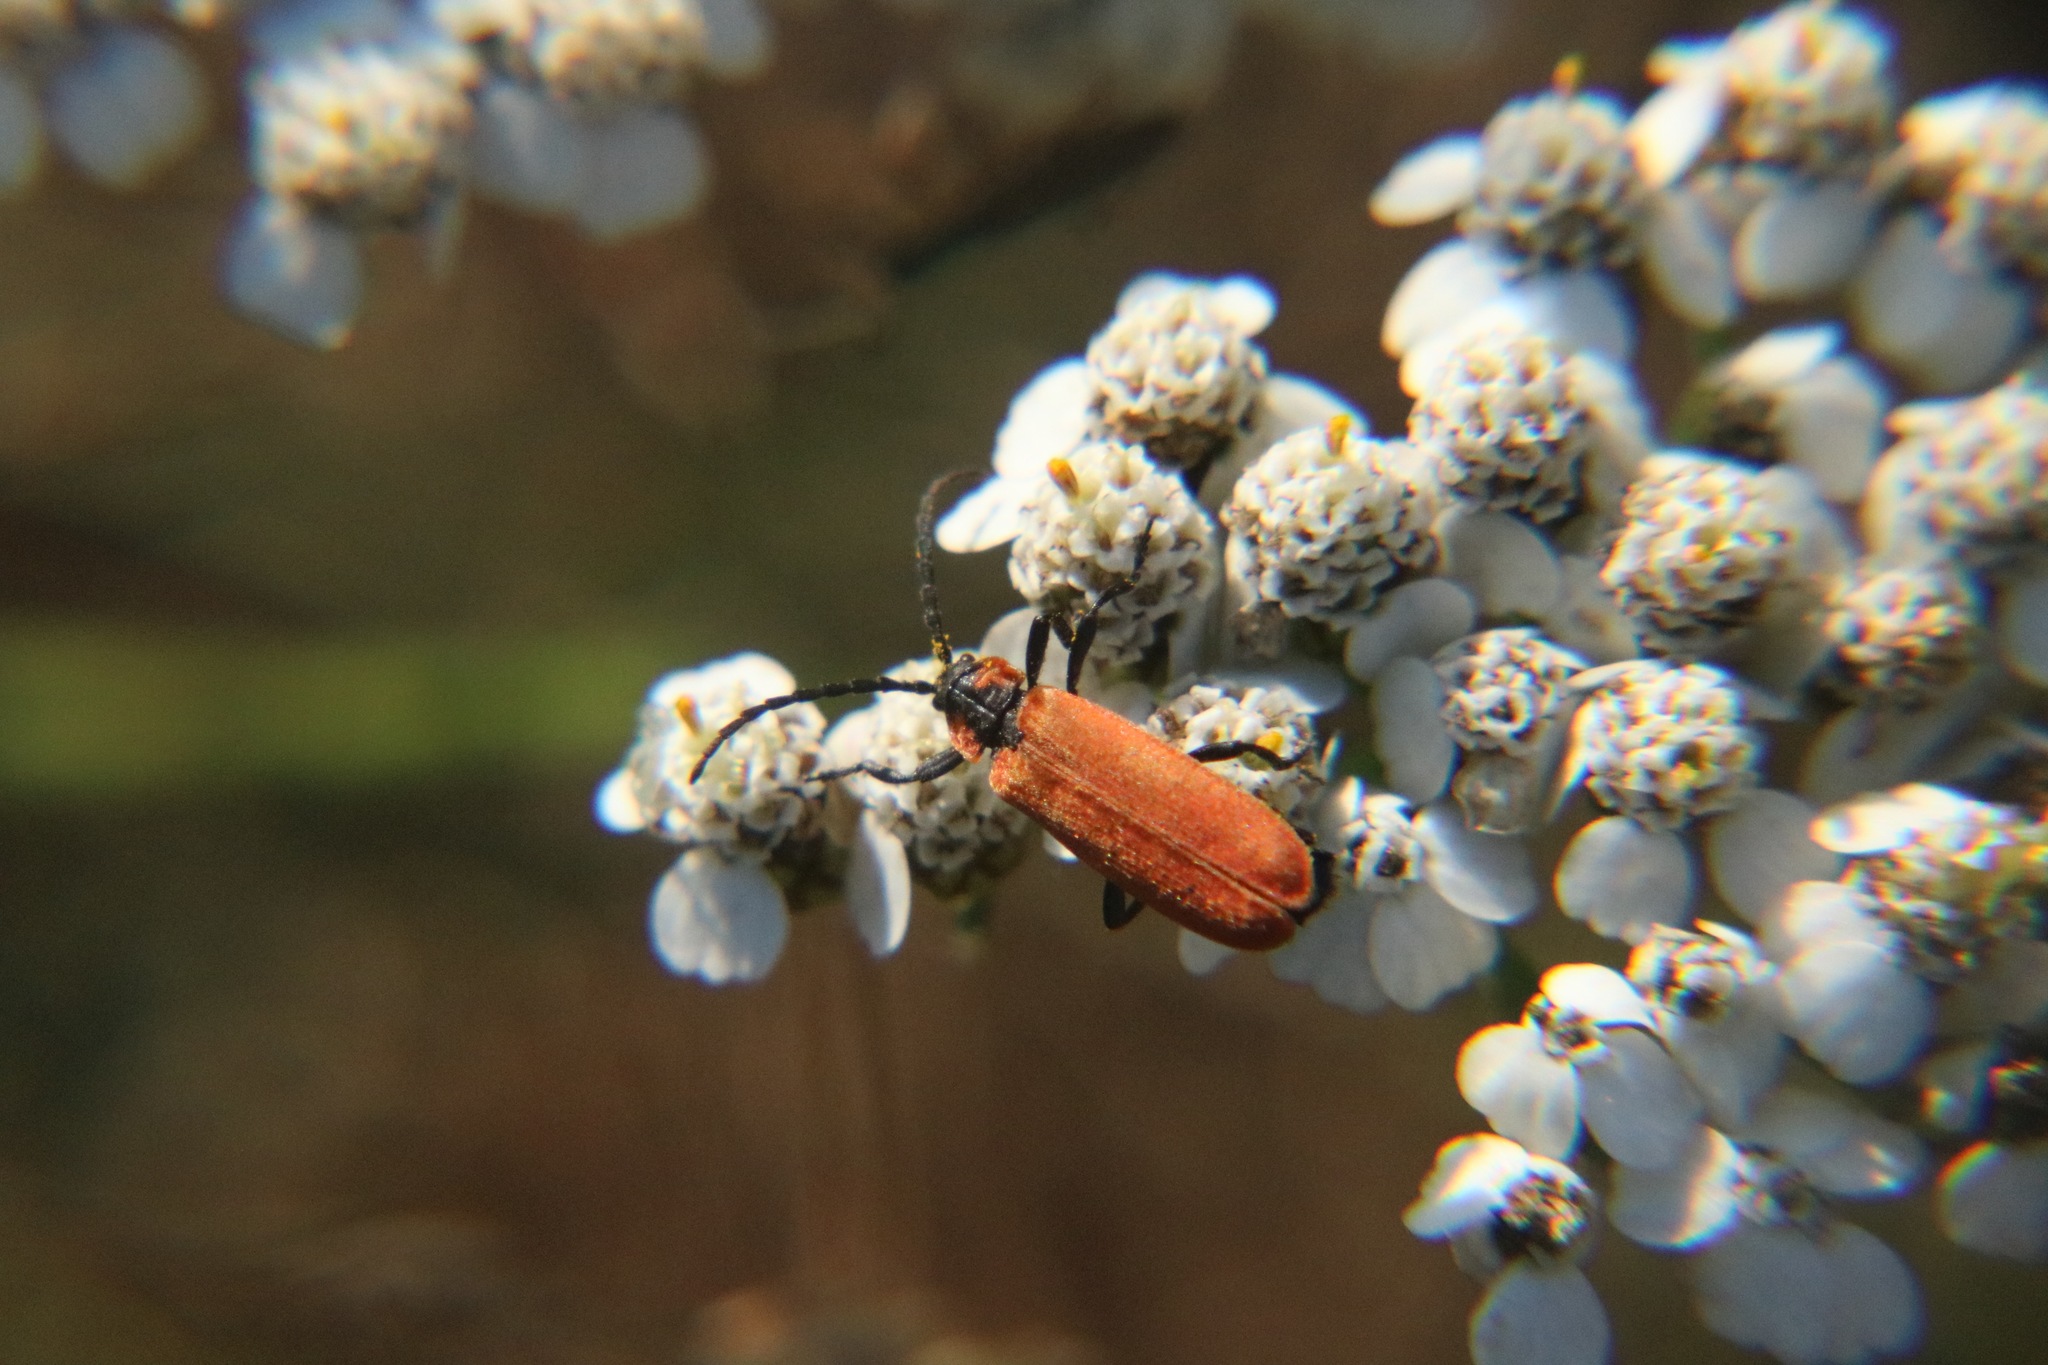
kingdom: Animalia
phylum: Arthropoda
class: Insecta
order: Coleoptera
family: Lycidae
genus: Lygistopterus
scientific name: Lygistopterus sanguineus
